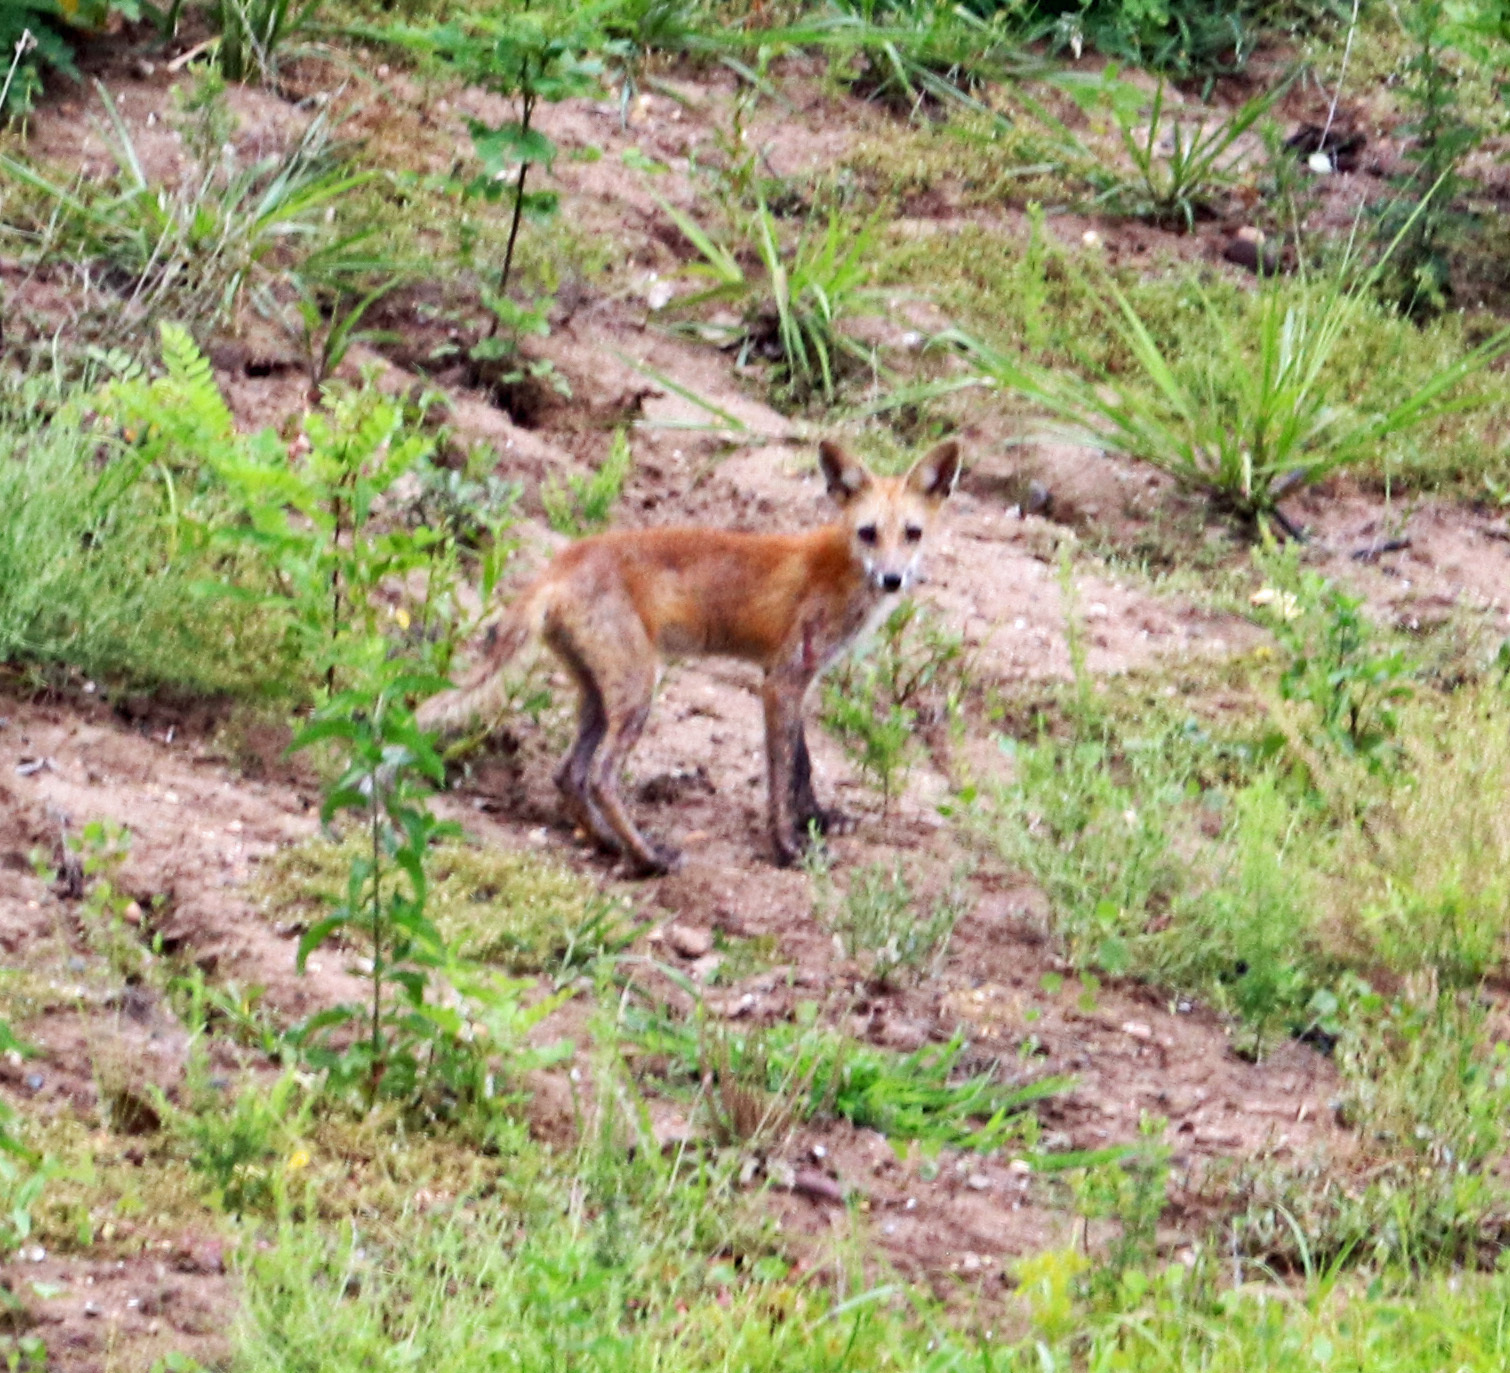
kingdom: Animalia
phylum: Chordata
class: Mammalia
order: Carnivora
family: Canidae
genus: Vulpes
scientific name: Vulpes vulpes
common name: Red fox
